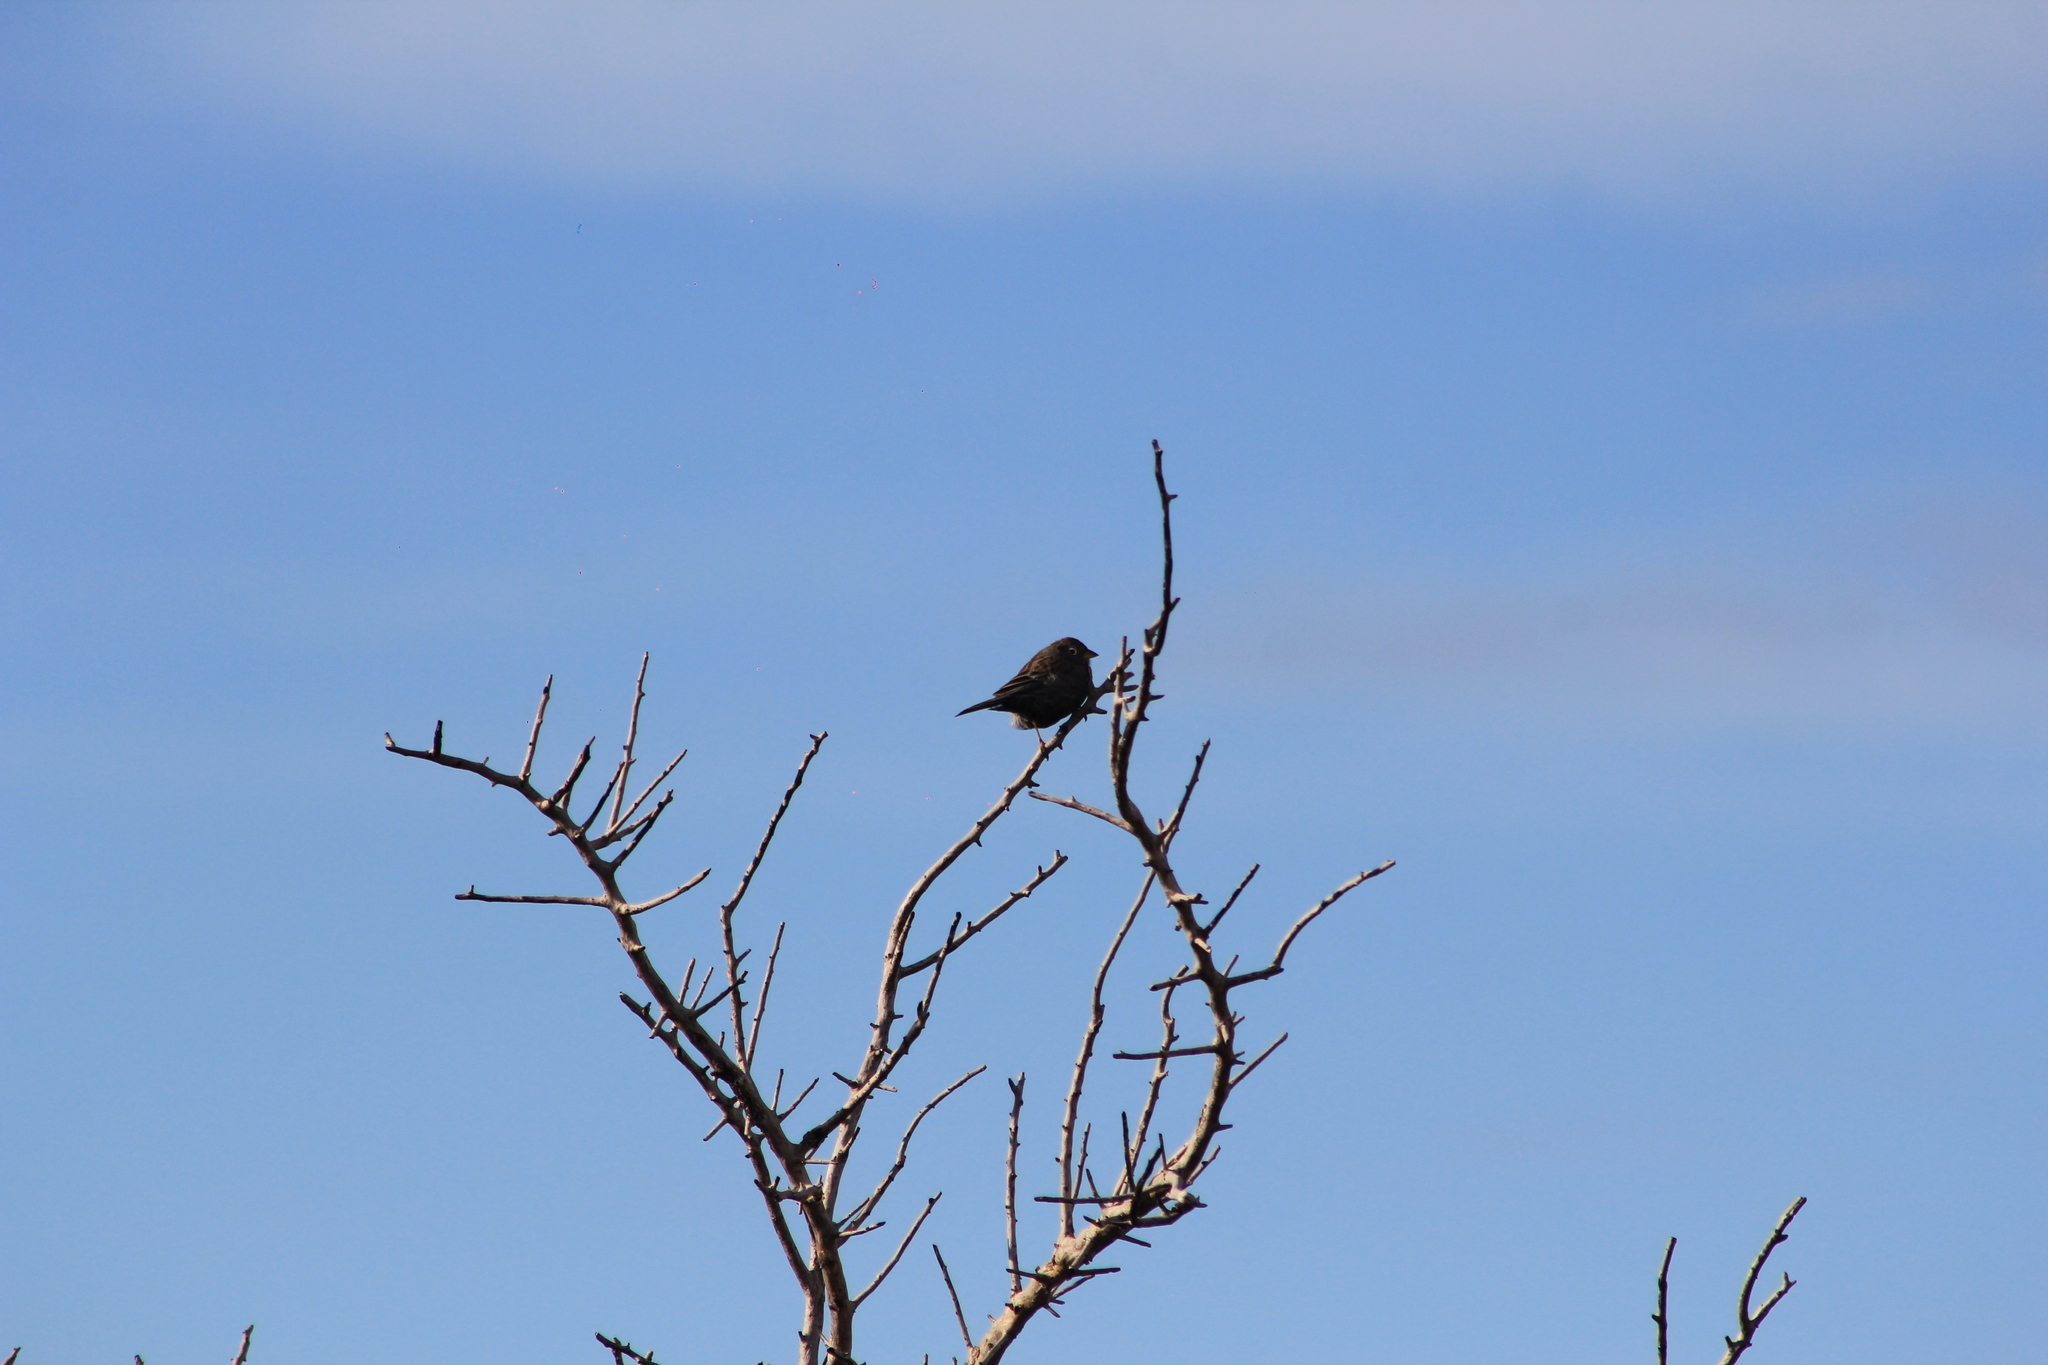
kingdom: Animalia
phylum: Chordata
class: Aves
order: Passeriformes
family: Thraupidae
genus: Porphyrospiza
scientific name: Porphyrospiza carbonaria
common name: Carbon finch
